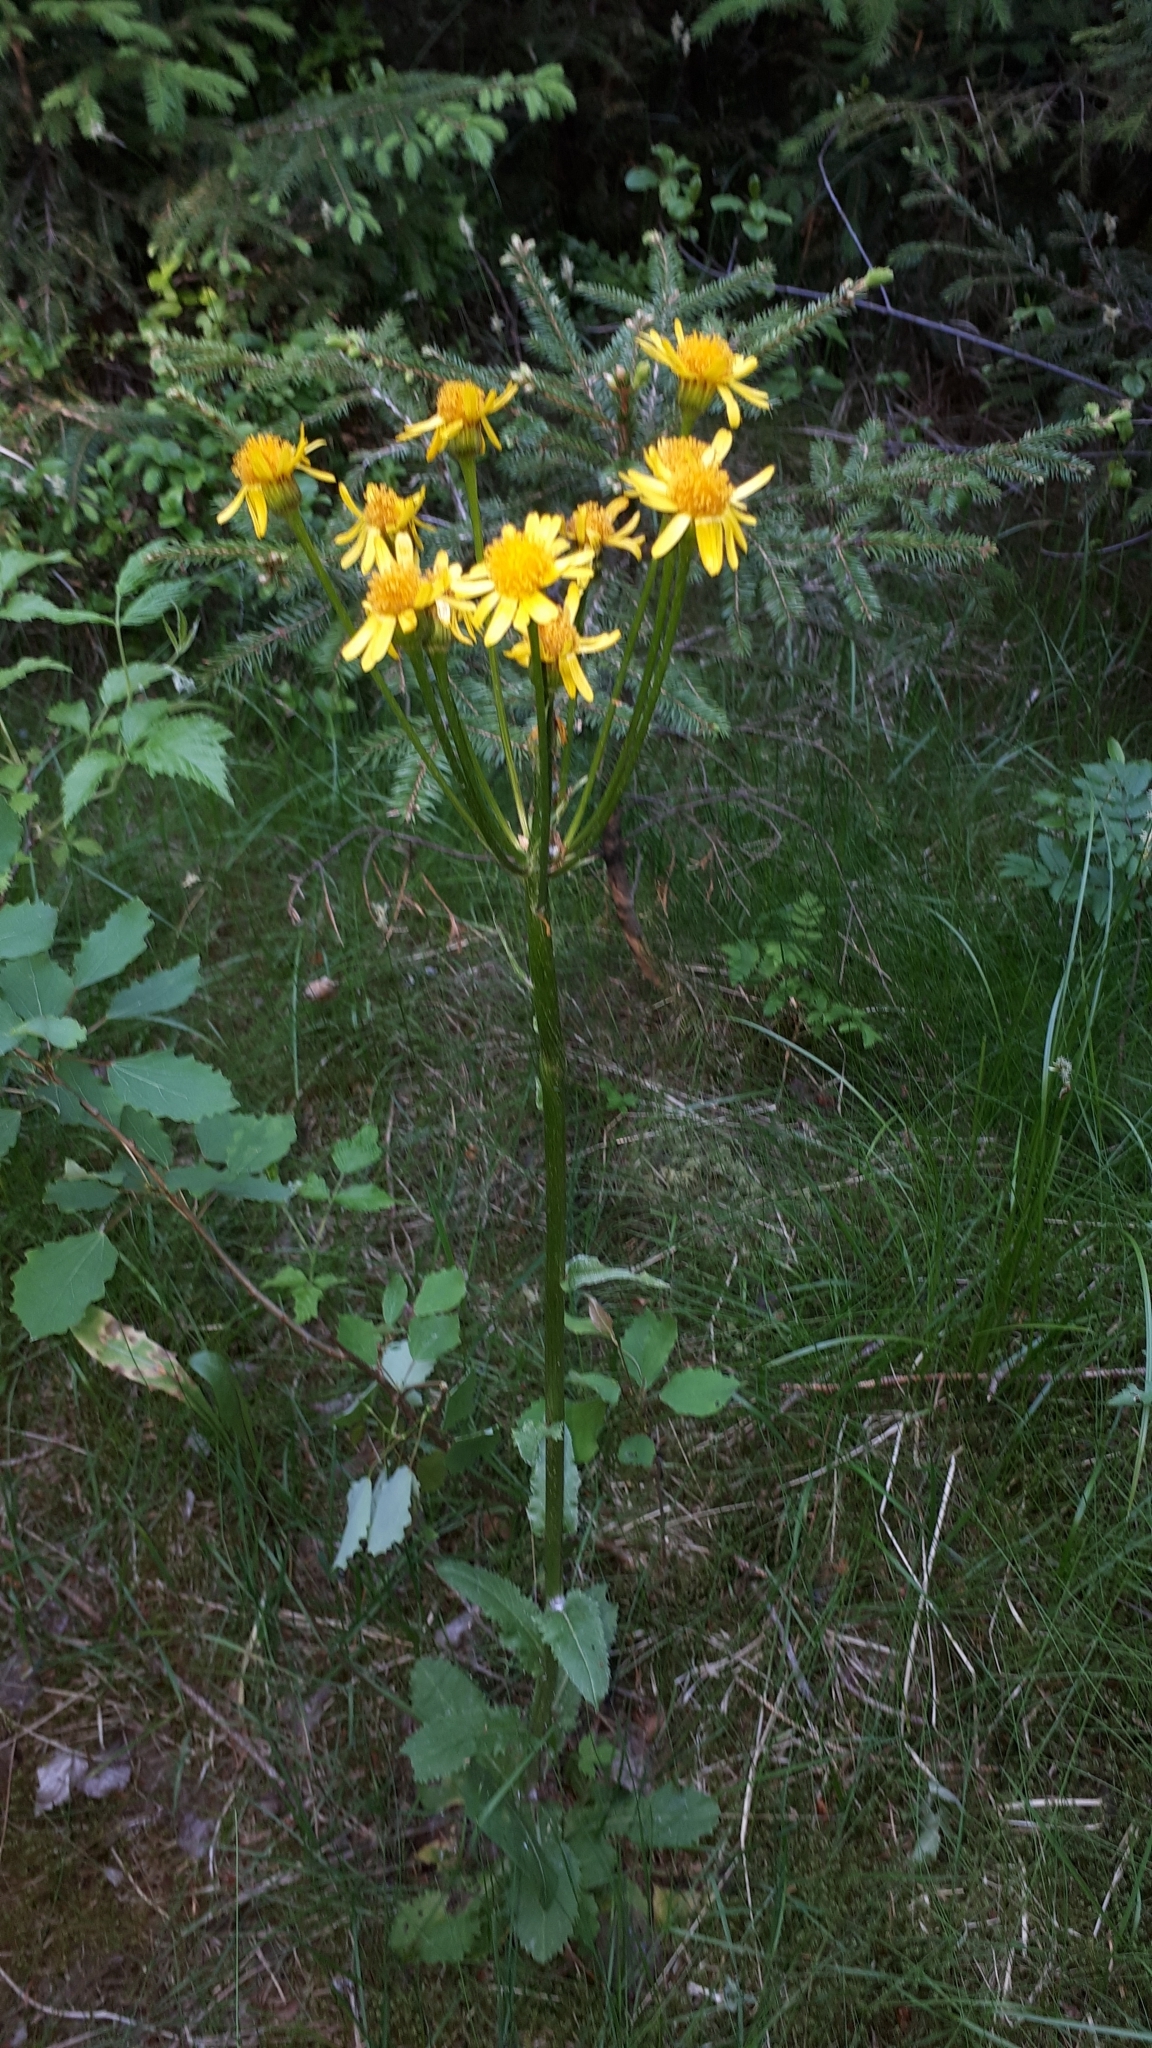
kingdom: Plantae
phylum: Tracheophyta
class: Magnoliopsida
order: Asterales
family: Asteraceae
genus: Tephroseris
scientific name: Tephroseris crispa
